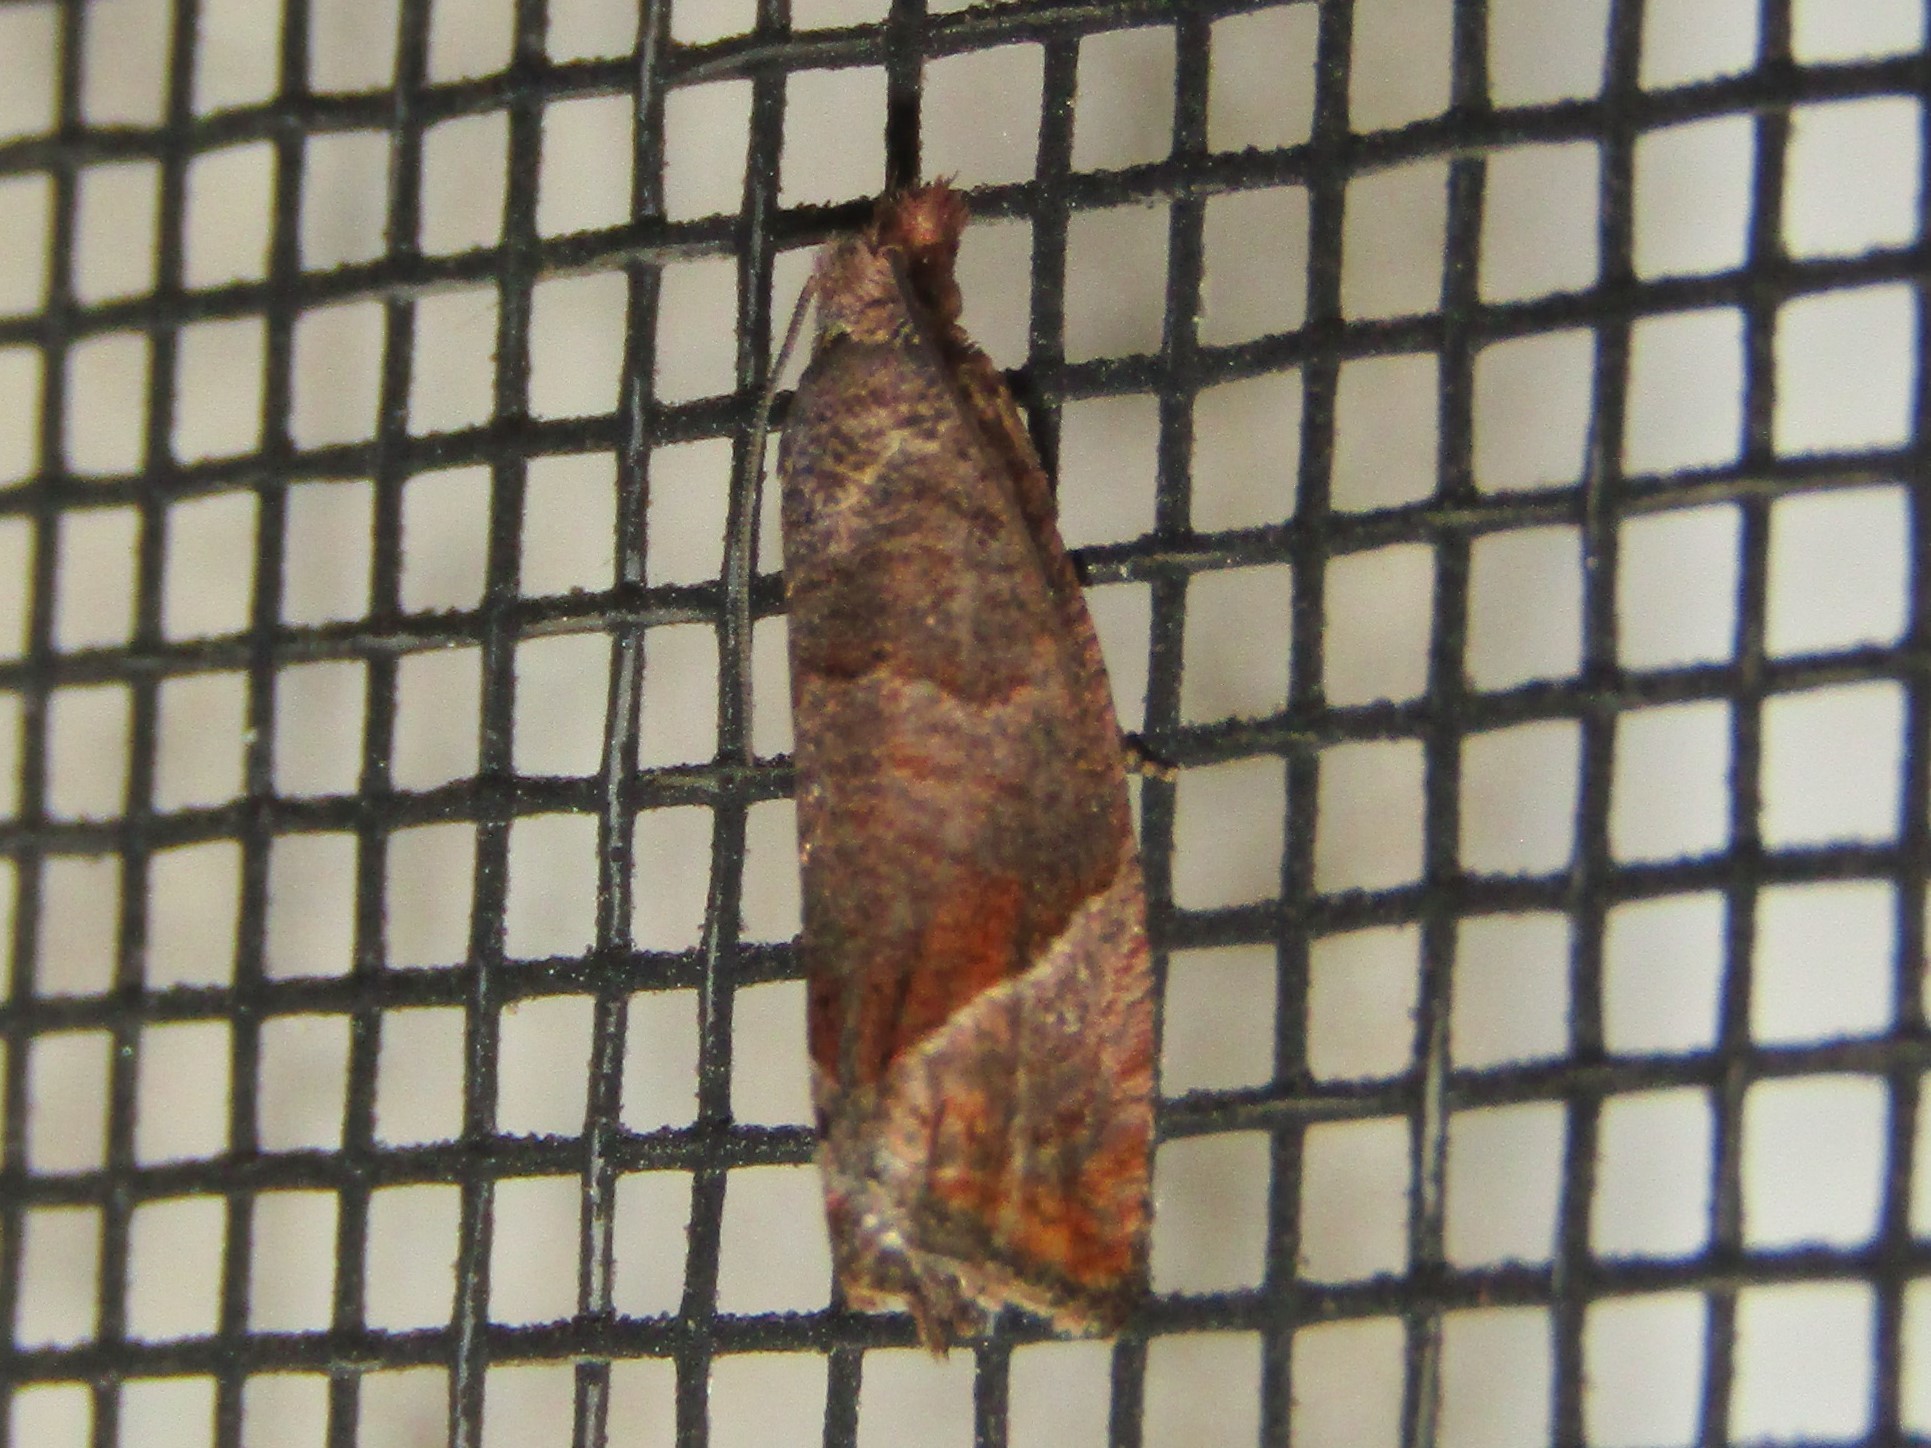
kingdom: Animalia
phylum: Arthropoda
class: Insecta
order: Lepidoptera
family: Tortricidae
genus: Pelochrista
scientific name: Pelochrista derelicta
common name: Derelict pelochrista moth
